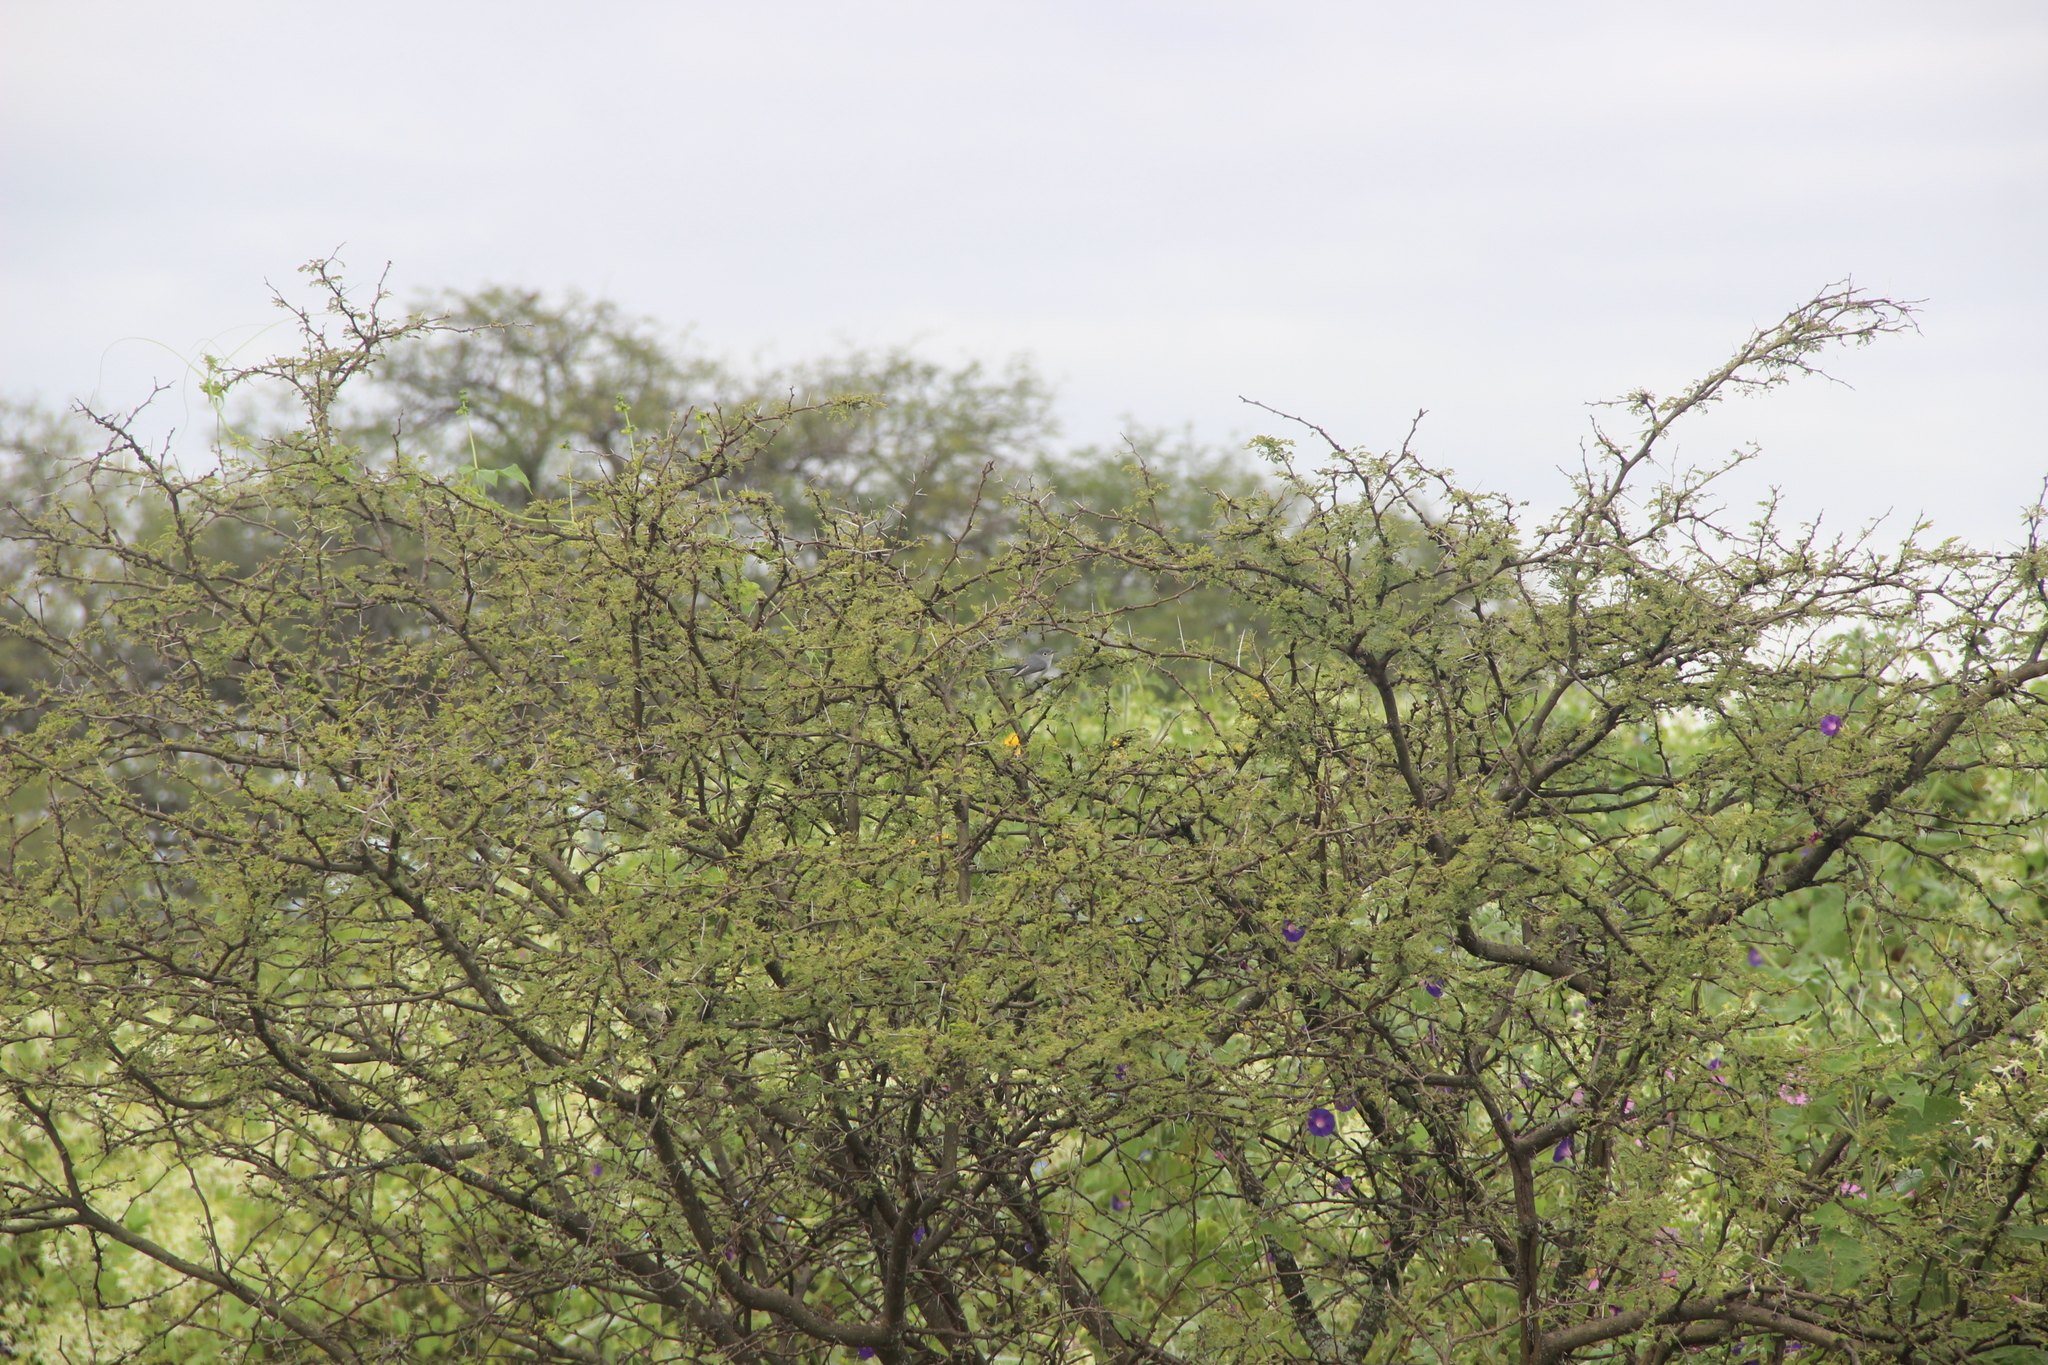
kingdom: Animalia
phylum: Chordata
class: Aves
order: Passeriformes
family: Polioptilidae
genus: Polioptila
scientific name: Polioptila caerulea
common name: Blue-gray gnatcatcher
